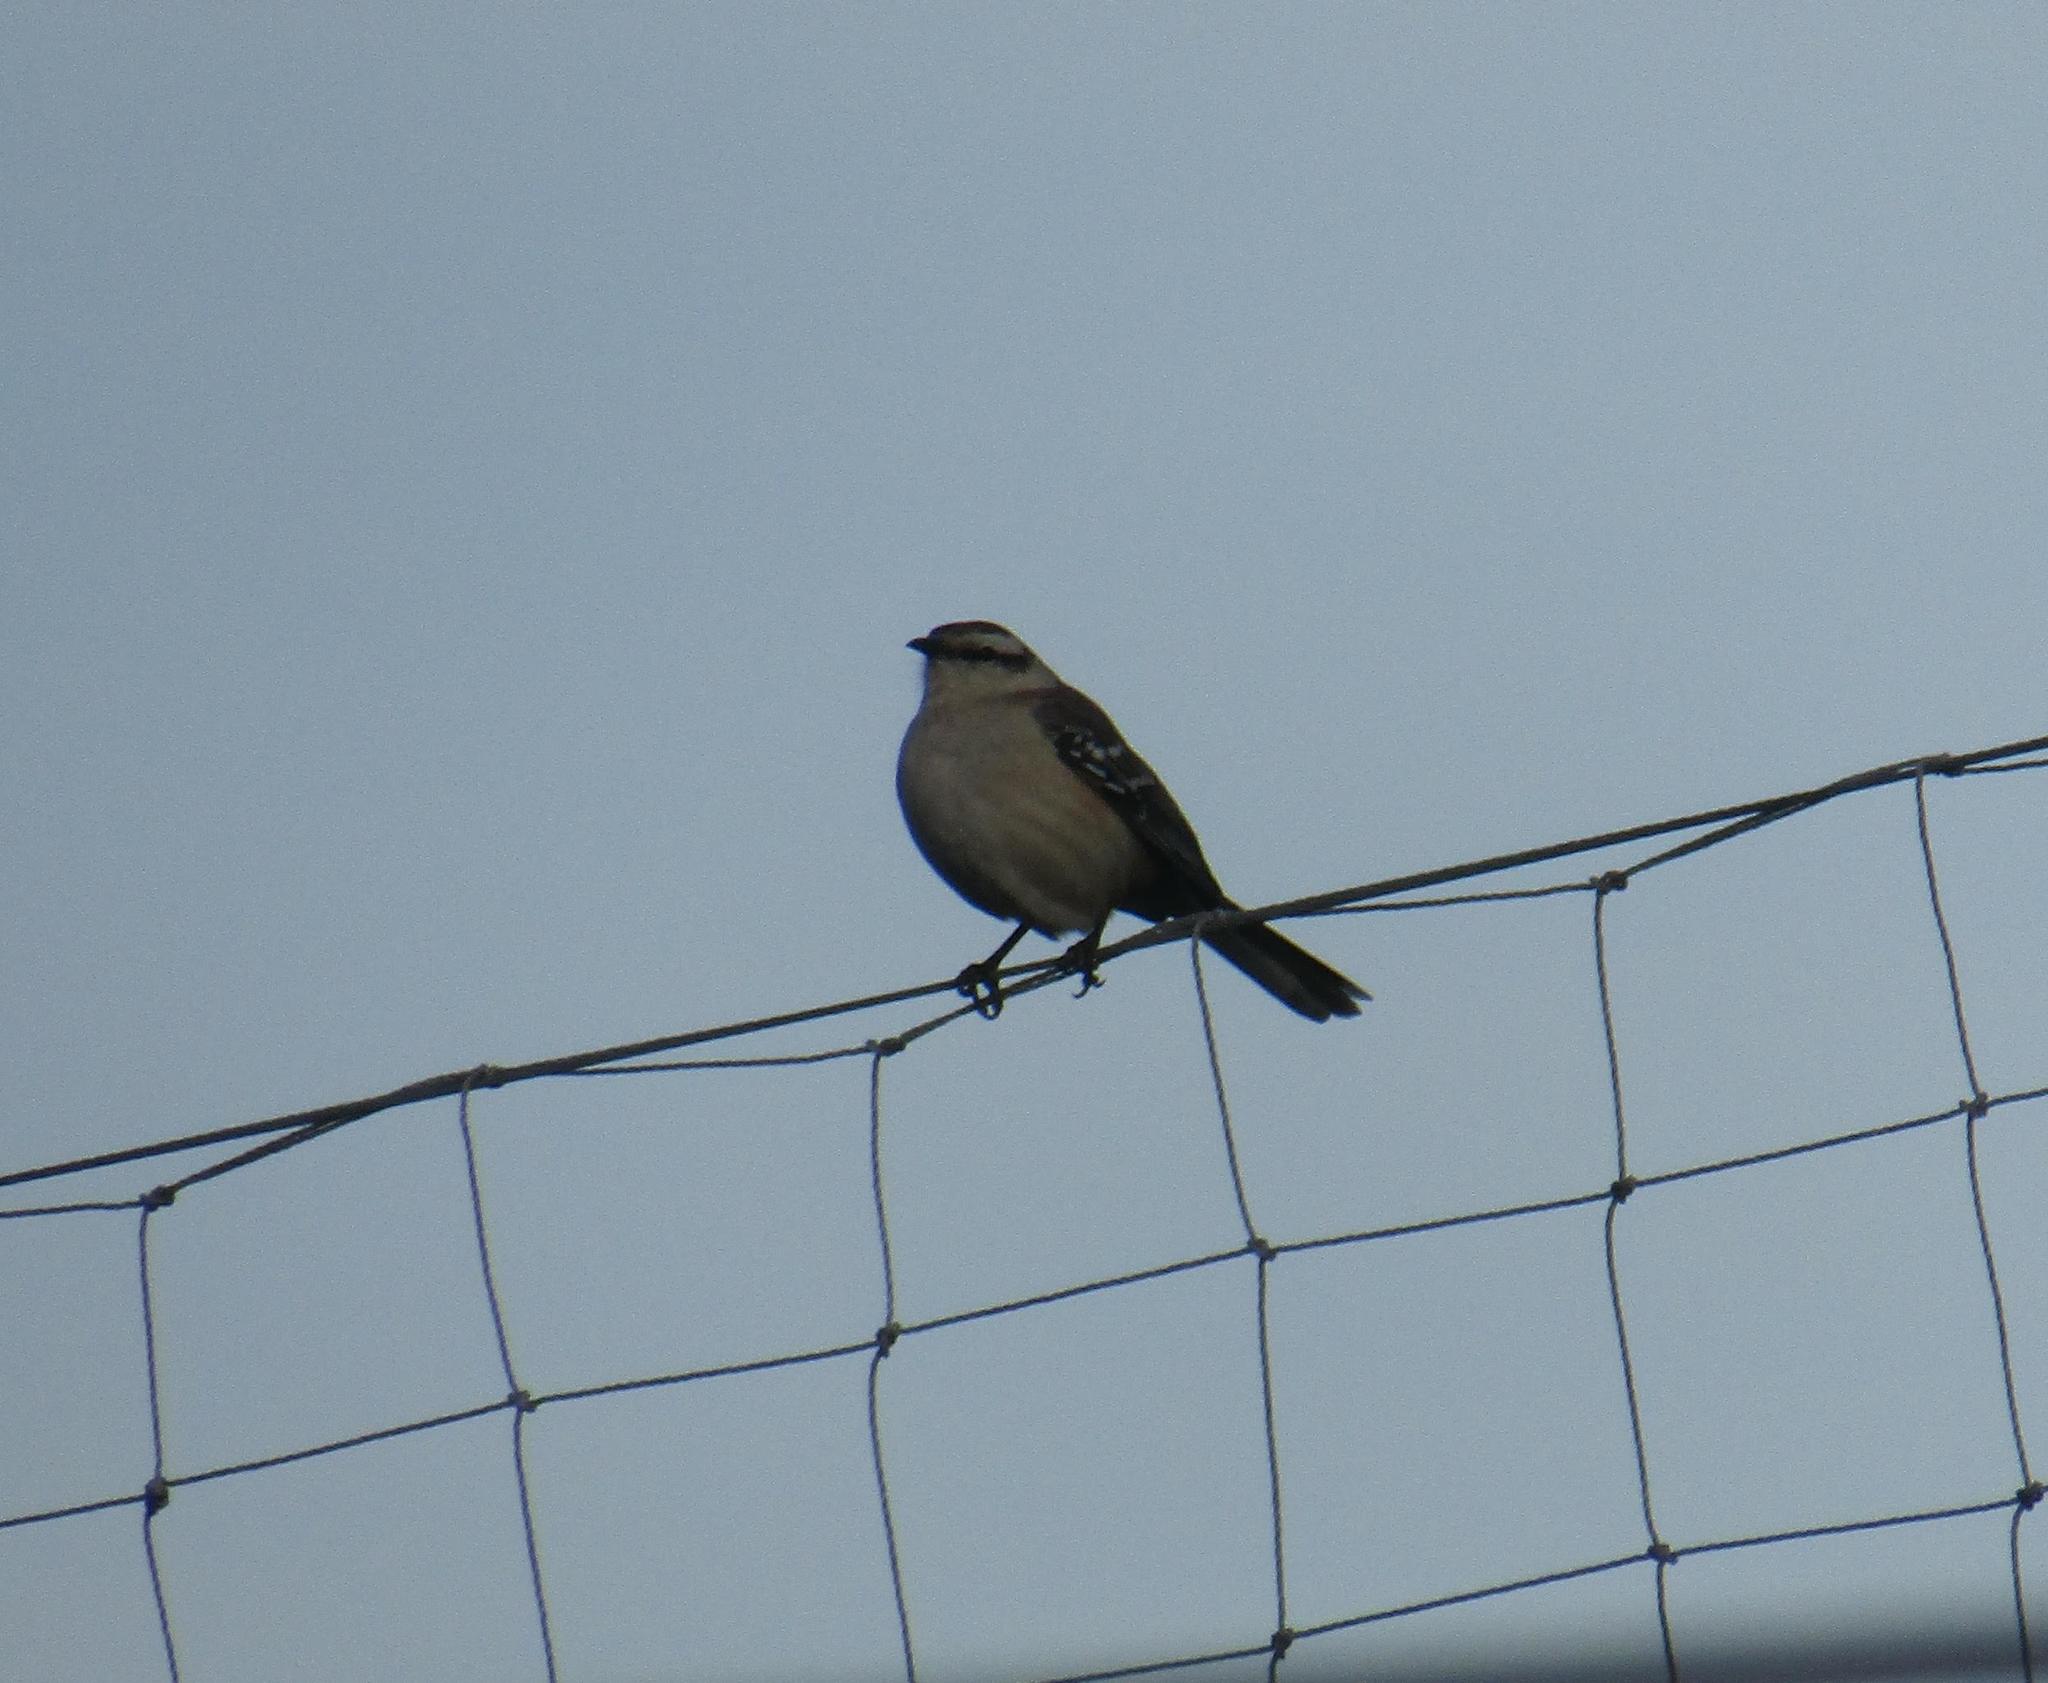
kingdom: Animalia
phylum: Chordata
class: Aves
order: Passeriformes
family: Mimidae
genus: Mimus
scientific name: Mimus saturninus
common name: Chalk-browed mockingbird
